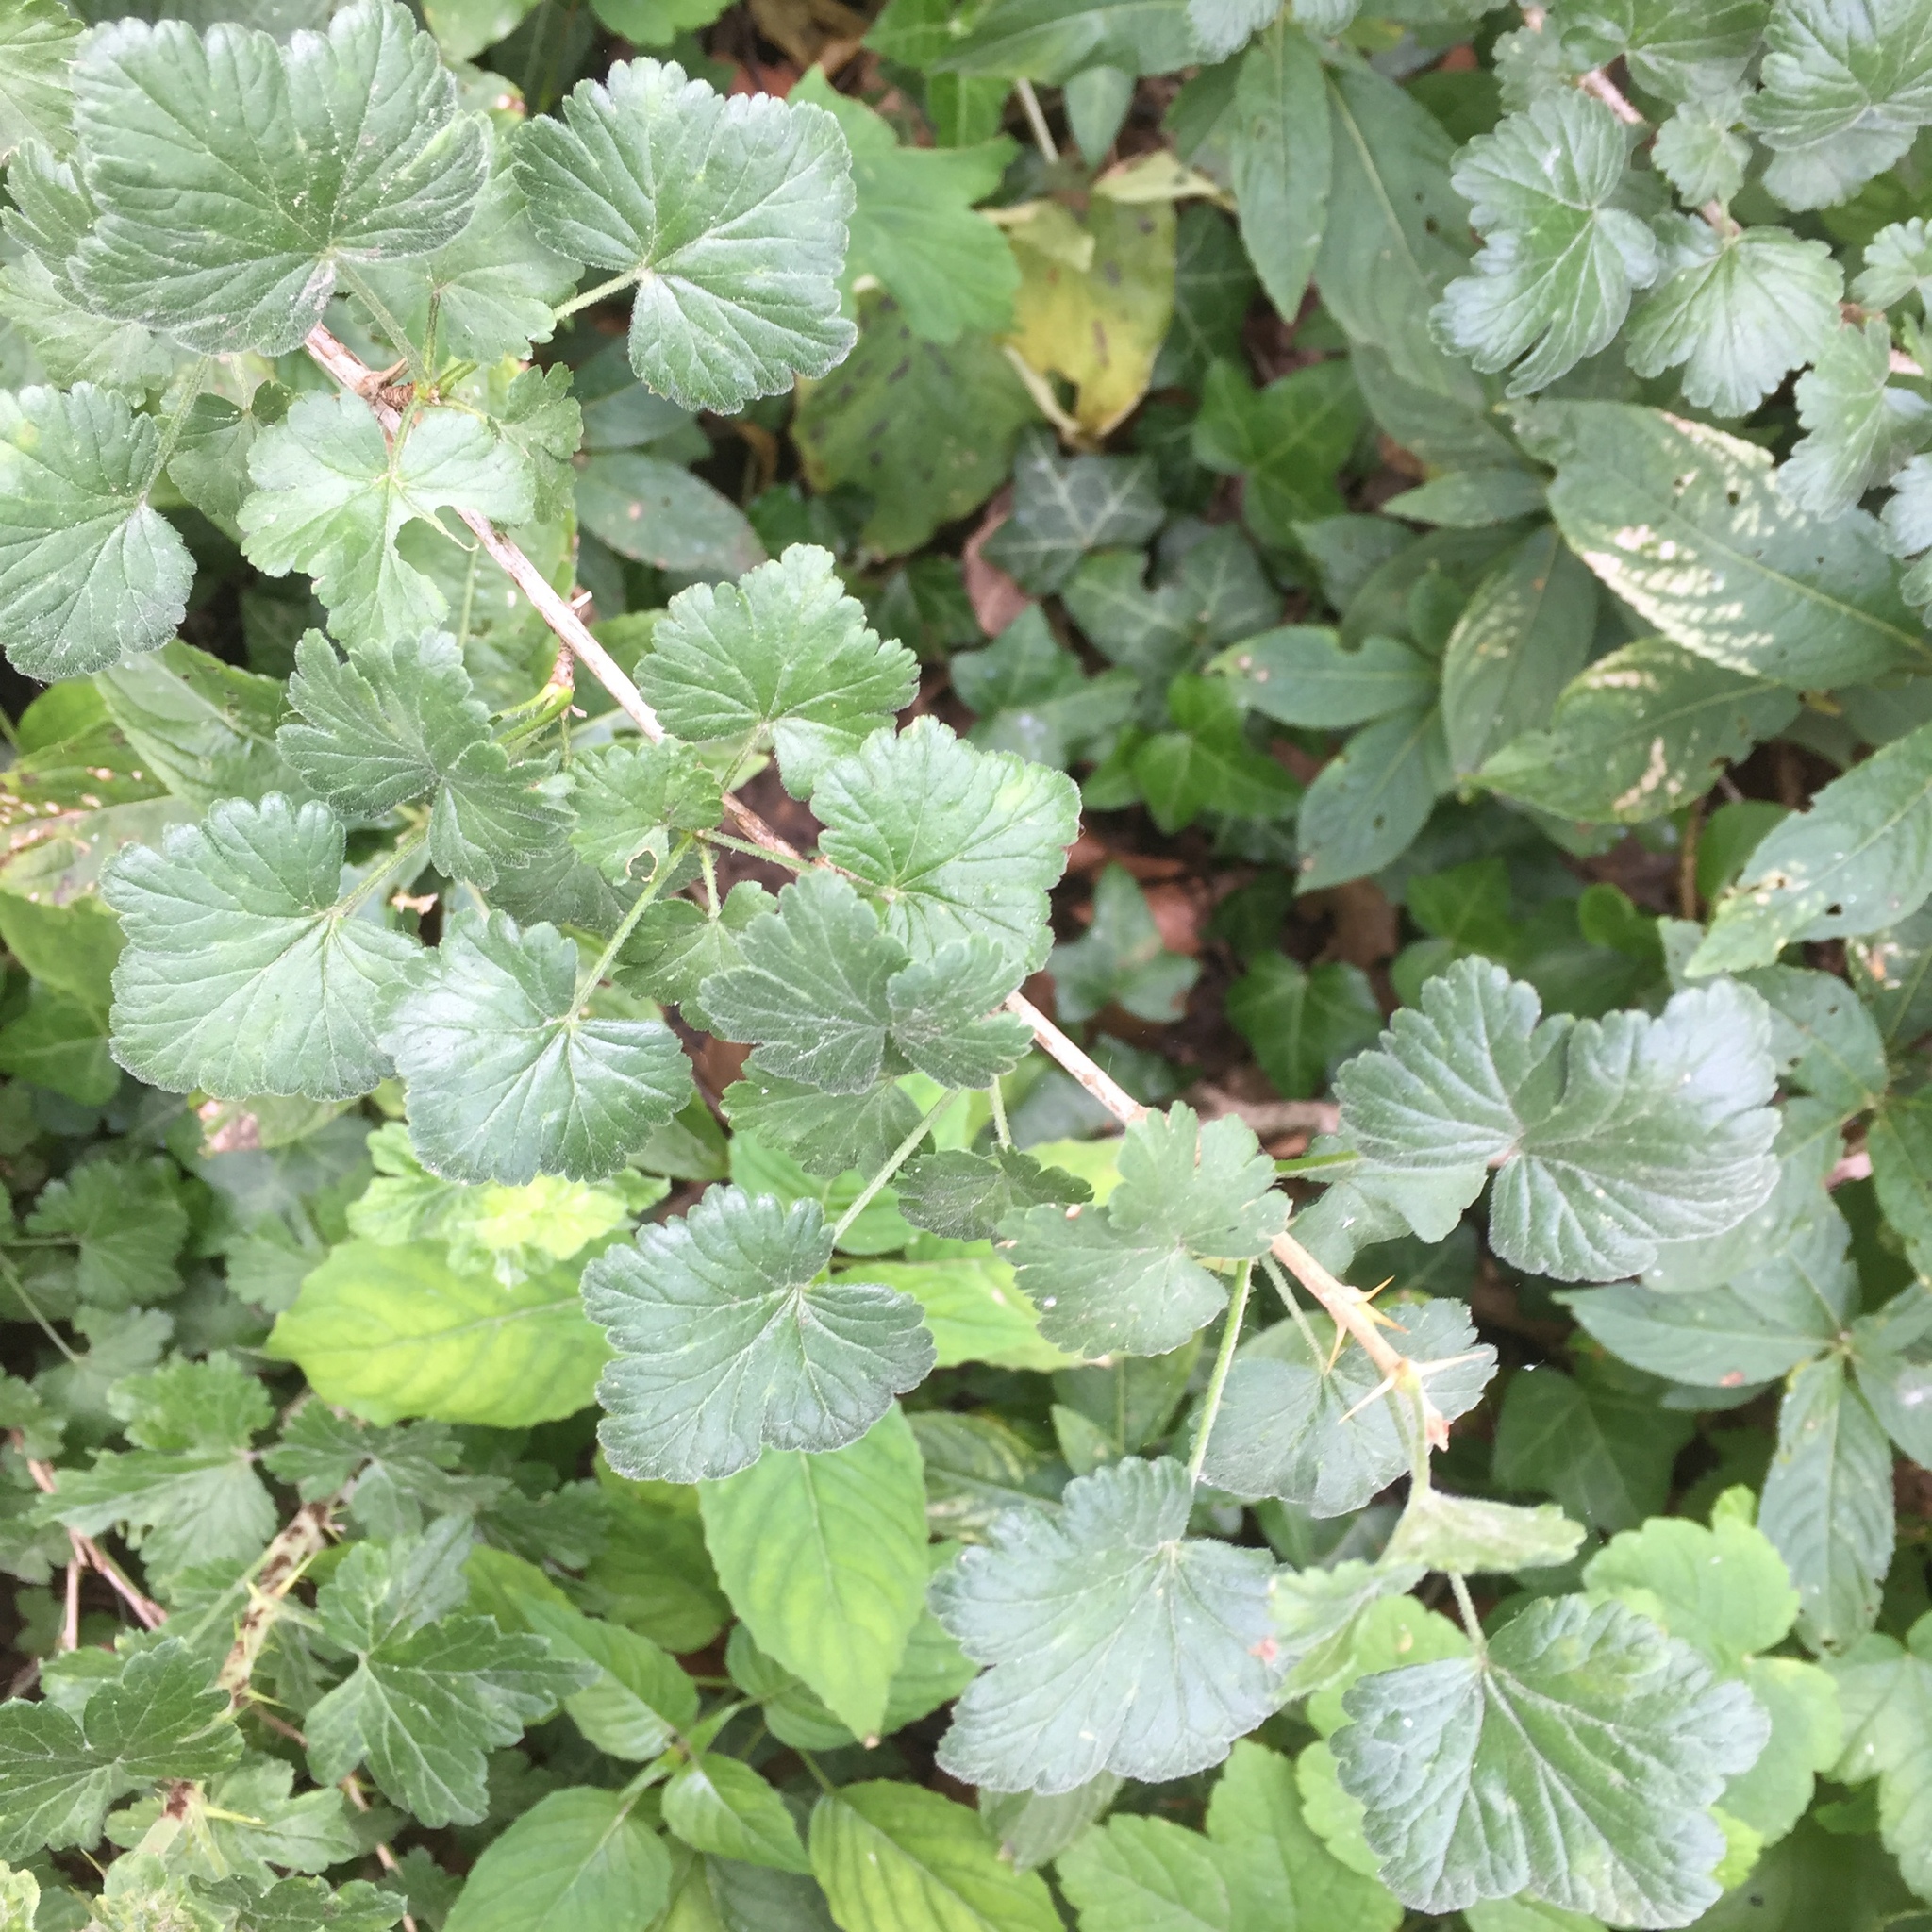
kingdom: Plantae
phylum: Tracheophyta
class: Magnoliopsida
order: Saxifragales
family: Grossulariaceae
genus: Ribes
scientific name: Ribes uva-crispa
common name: Gooseberry
